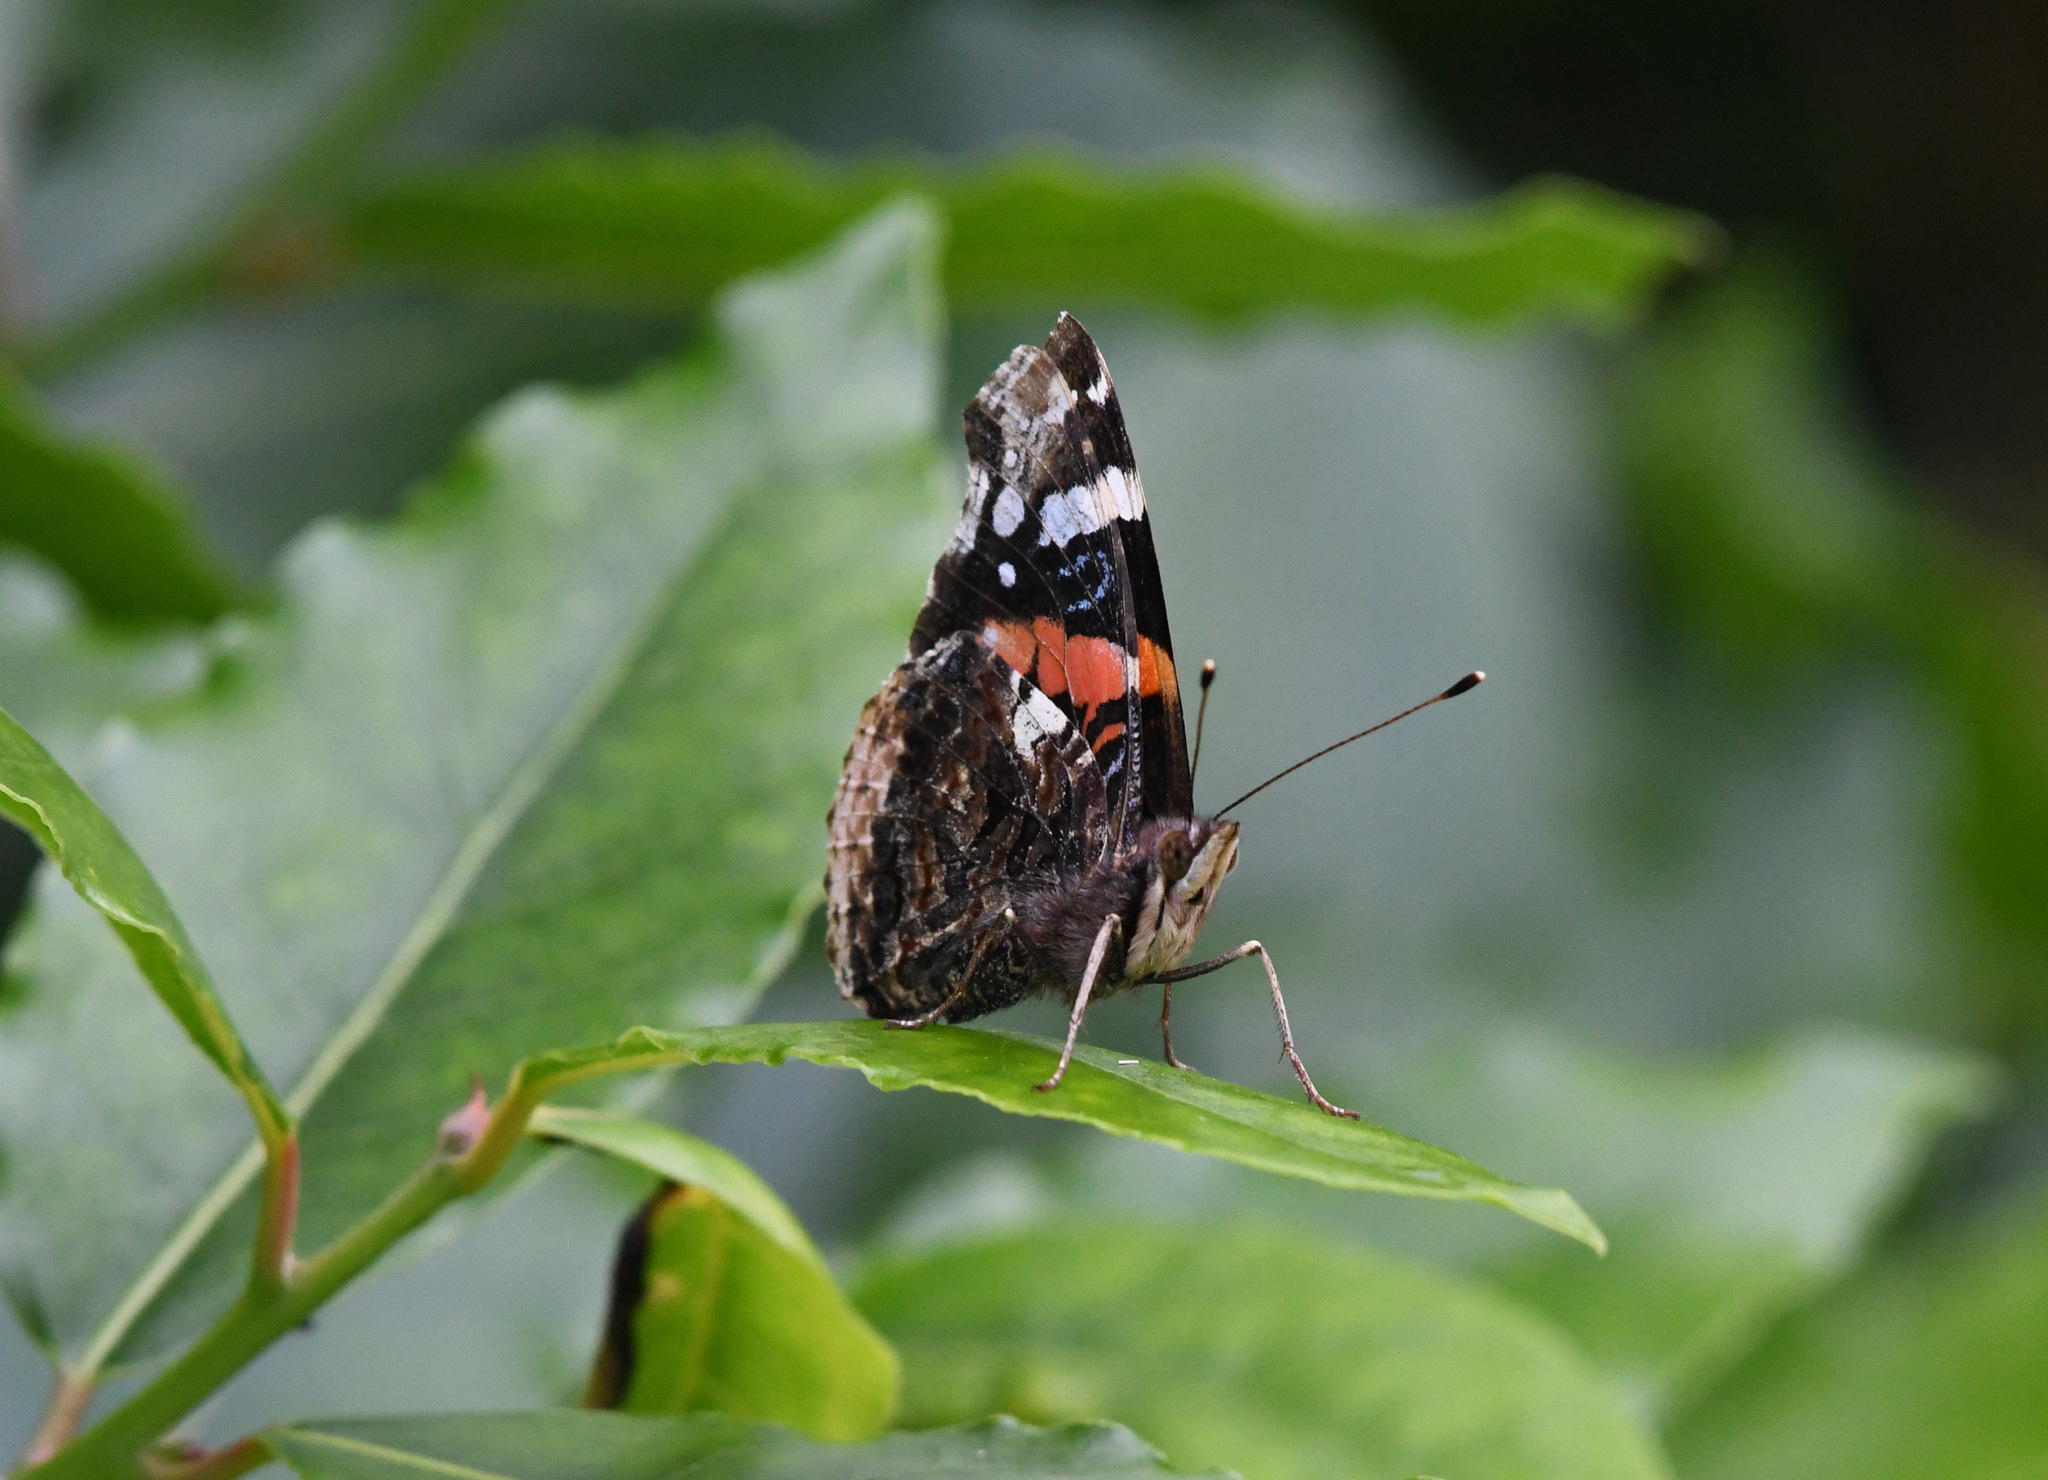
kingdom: Animalia
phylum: Arthropoda
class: Insecta
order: Lepidoptera
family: Nymphalidae
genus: Vanessa
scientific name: Vanessa atalanta
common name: Red admiral
